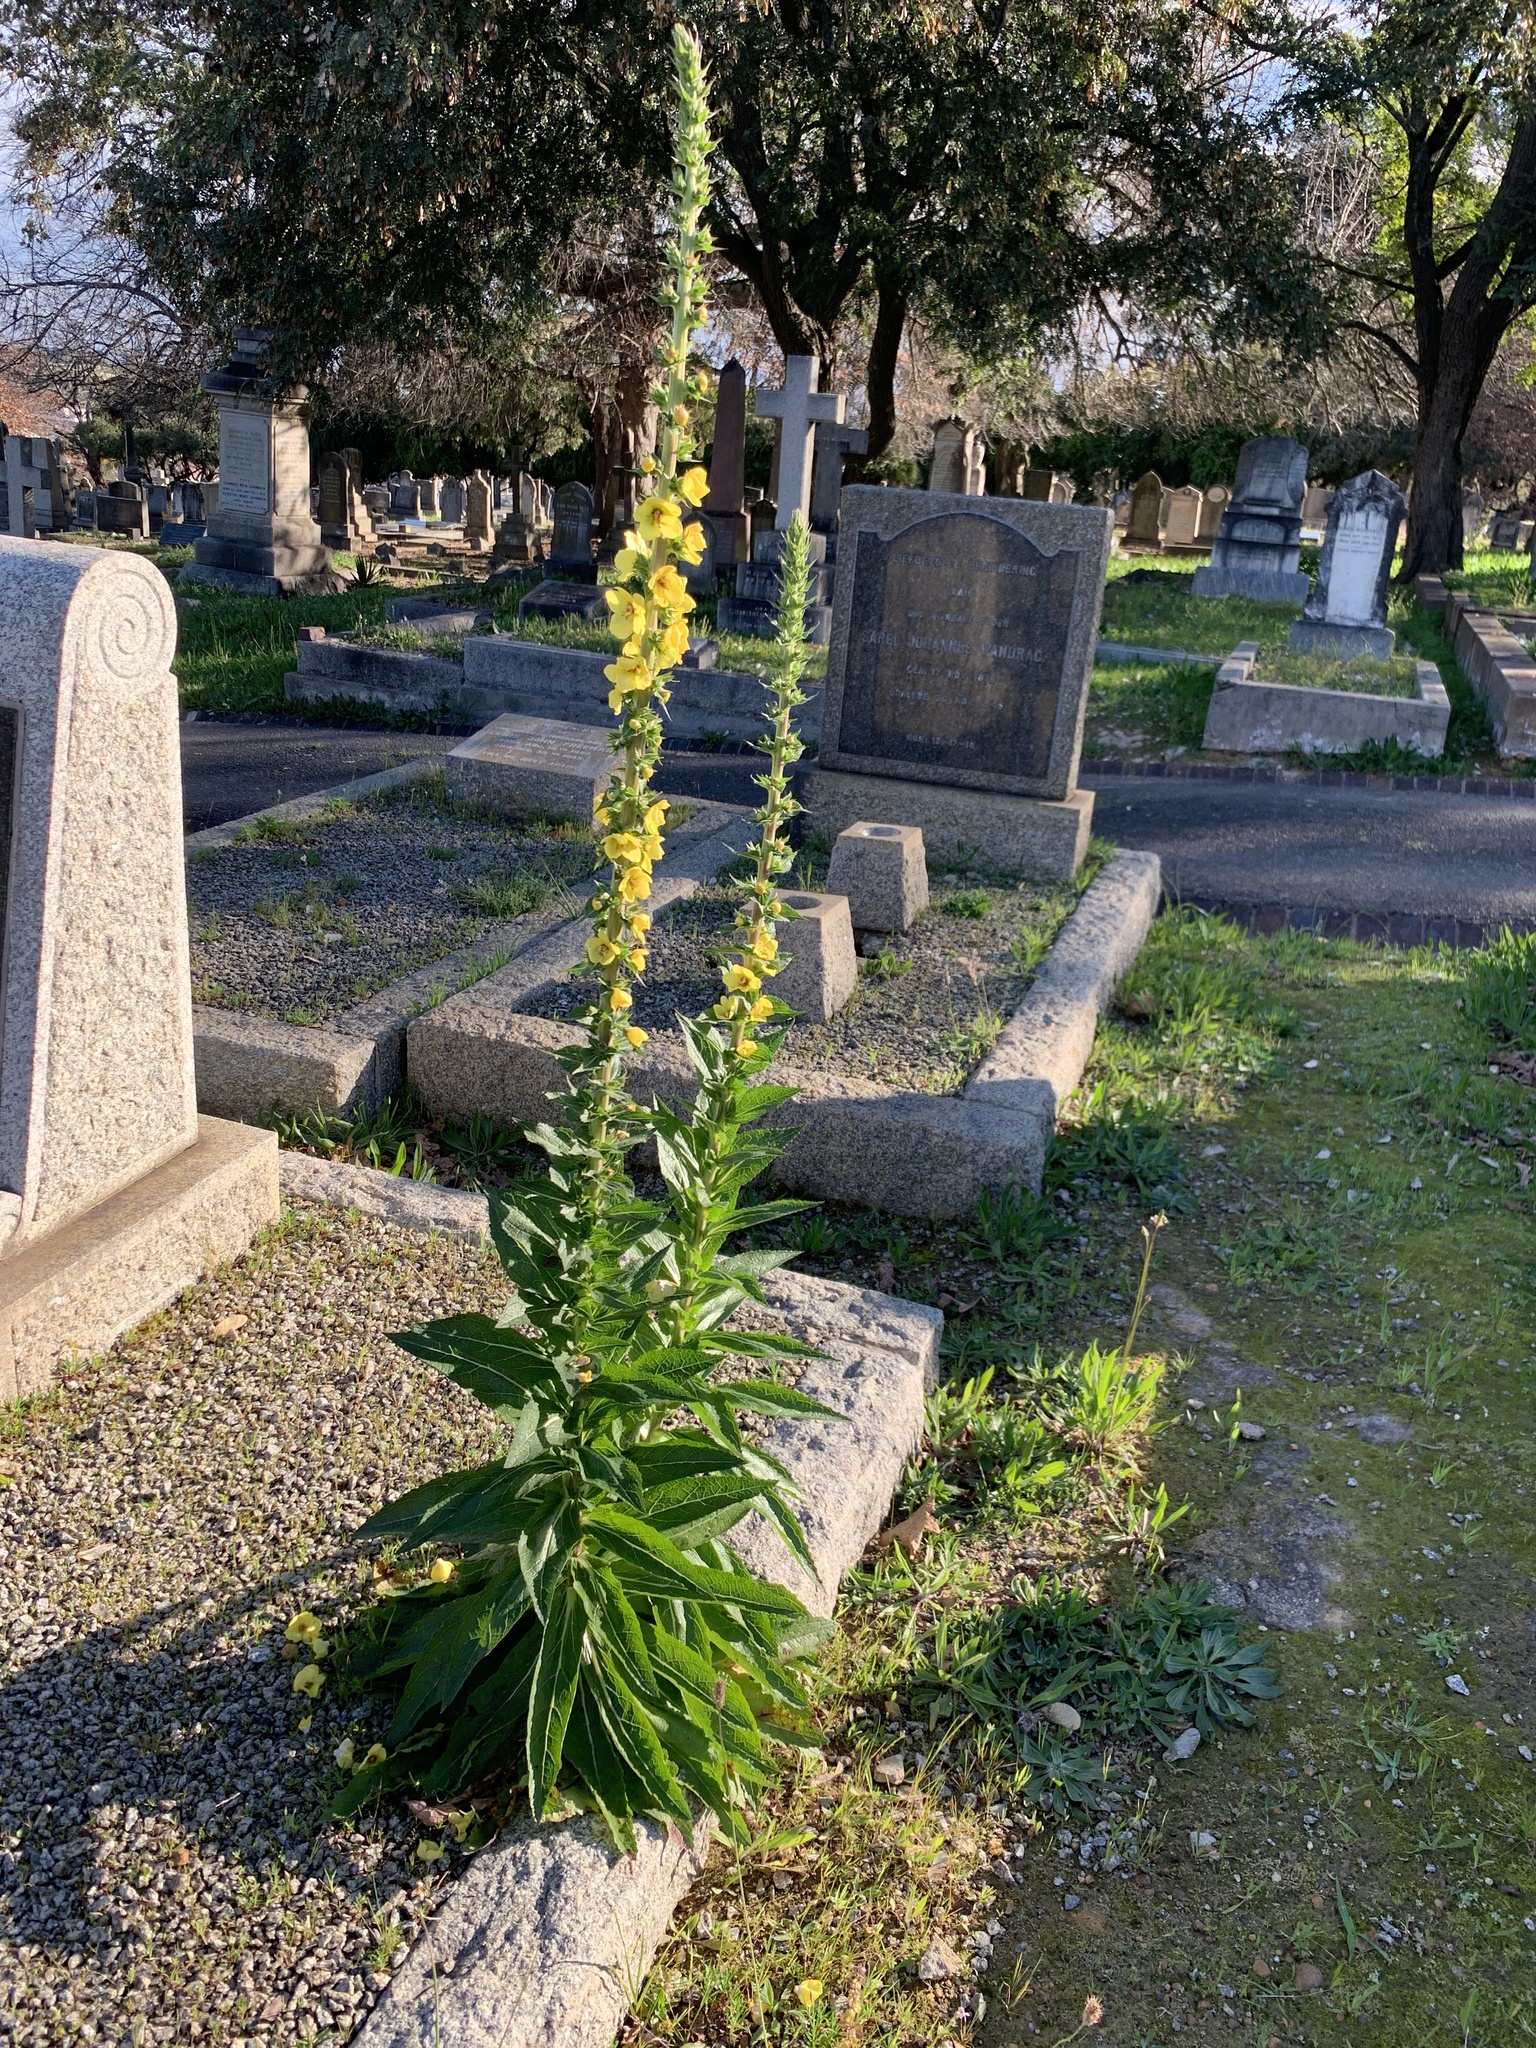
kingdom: Plantae
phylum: Tracheophyta
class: Magnoliopsida
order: Lamiales
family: Scrophulariaceae
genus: Verbascum
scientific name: Verbascum virgatum
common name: Twiggy mullein
